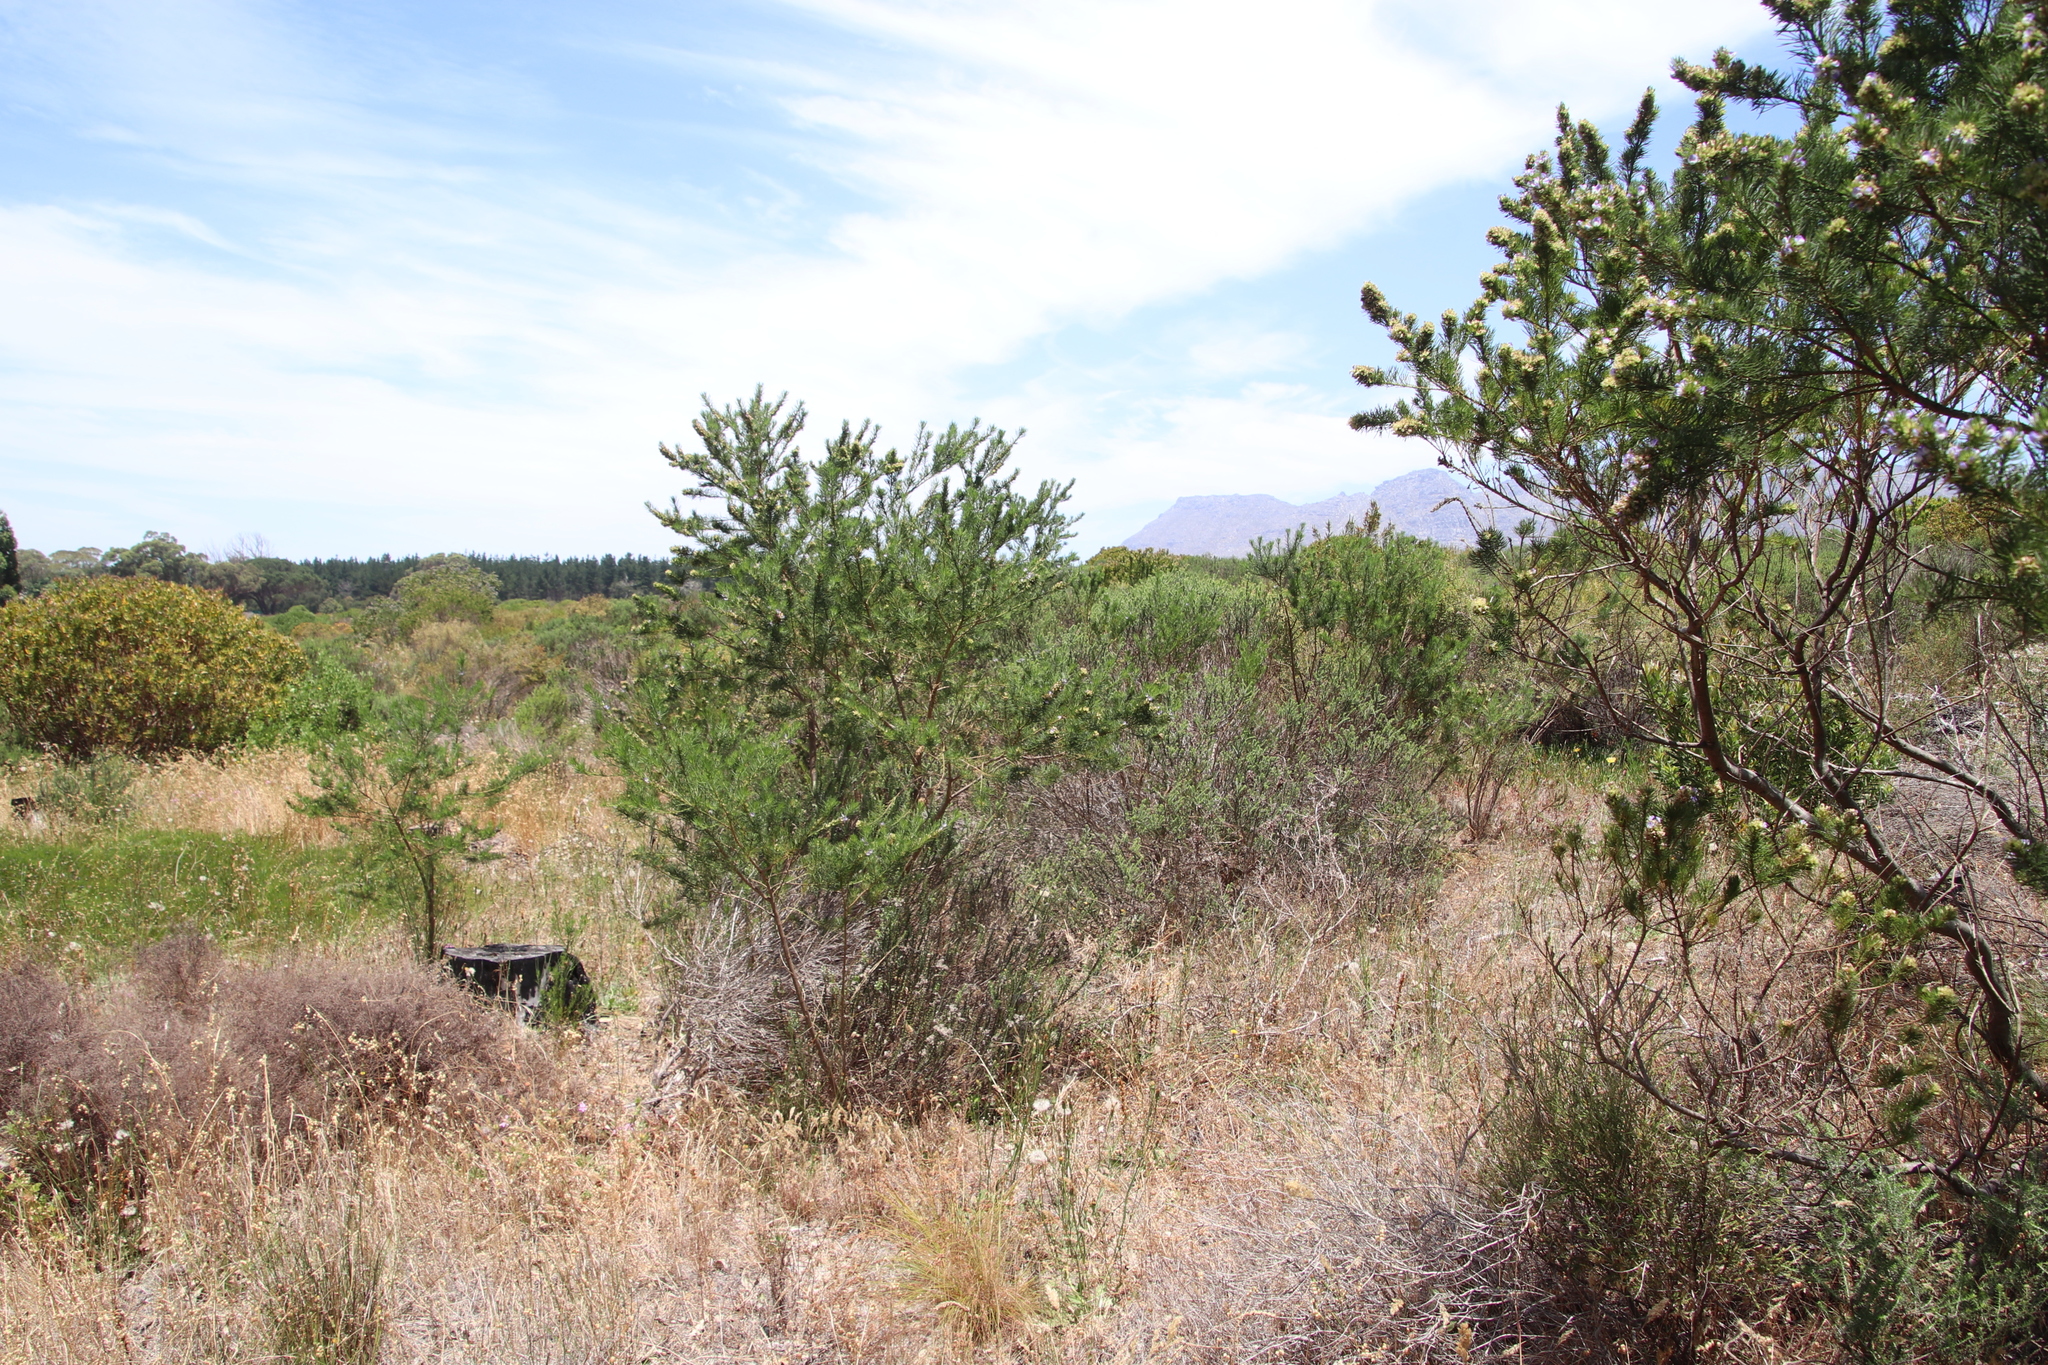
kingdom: Plantae
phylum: Tracheophyta
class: Magnoliopsida
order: Fabales
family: Fabaceae
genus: Psoralea
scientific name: Psoralea pinnata
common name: African scurfpea
